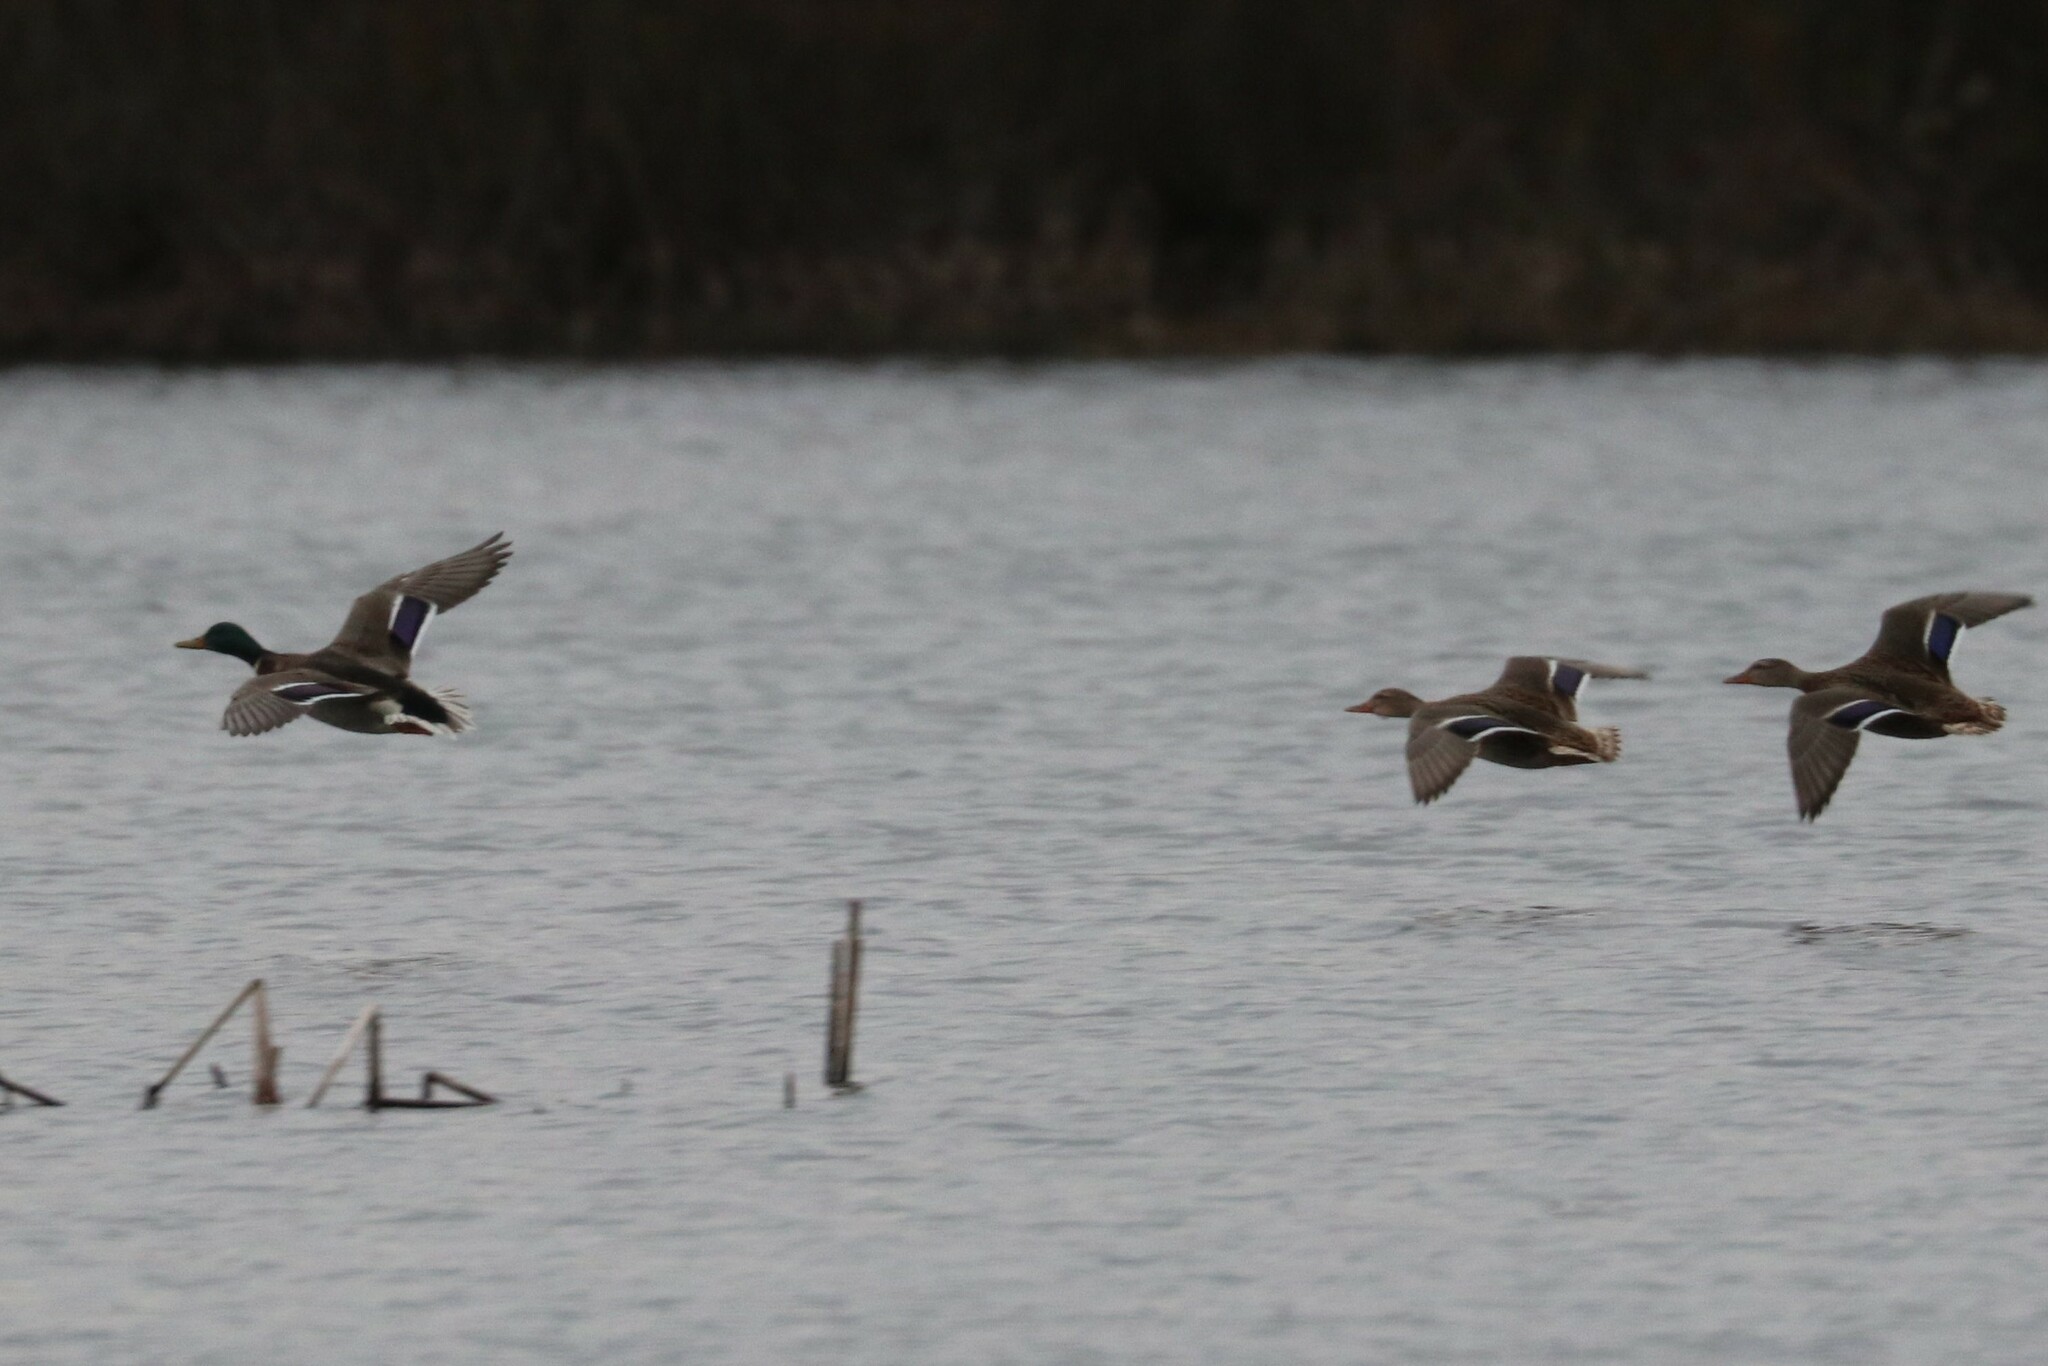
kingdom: Animalia
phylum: Chordata
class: Aves
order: Anseriformes
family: Anatidae
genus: Anas
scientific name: Anas platyrhynchos
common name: Mallard
